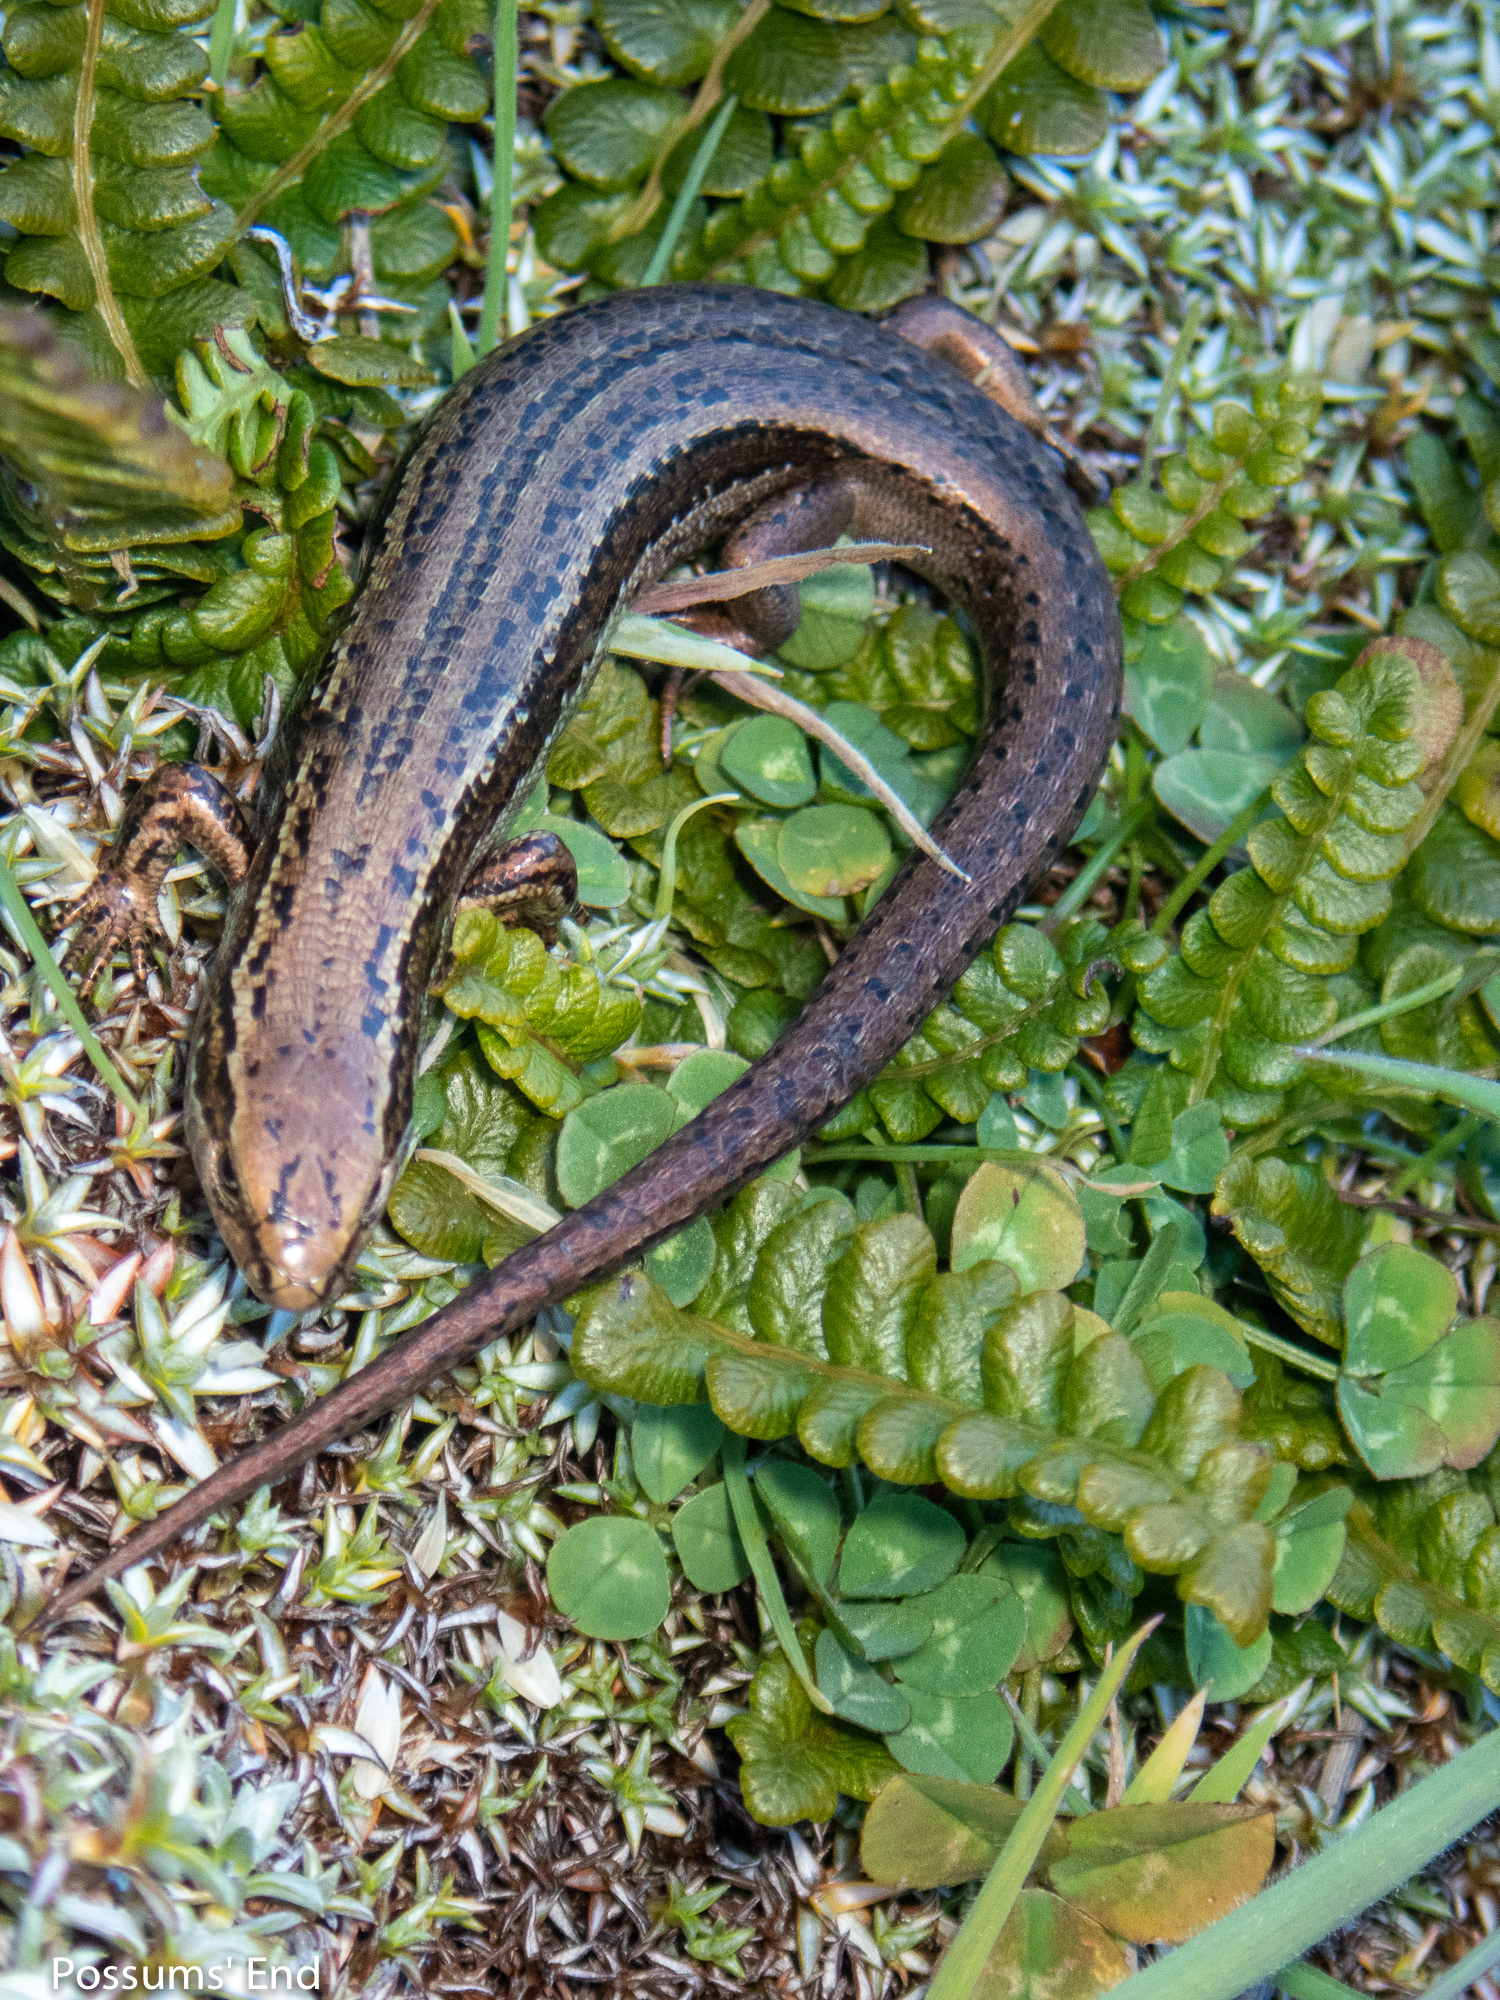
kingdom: Animalia
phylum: Chordata
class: Squamata
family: Scincidae
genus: Oligosoma
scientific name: Oligosoma inconspicuum
